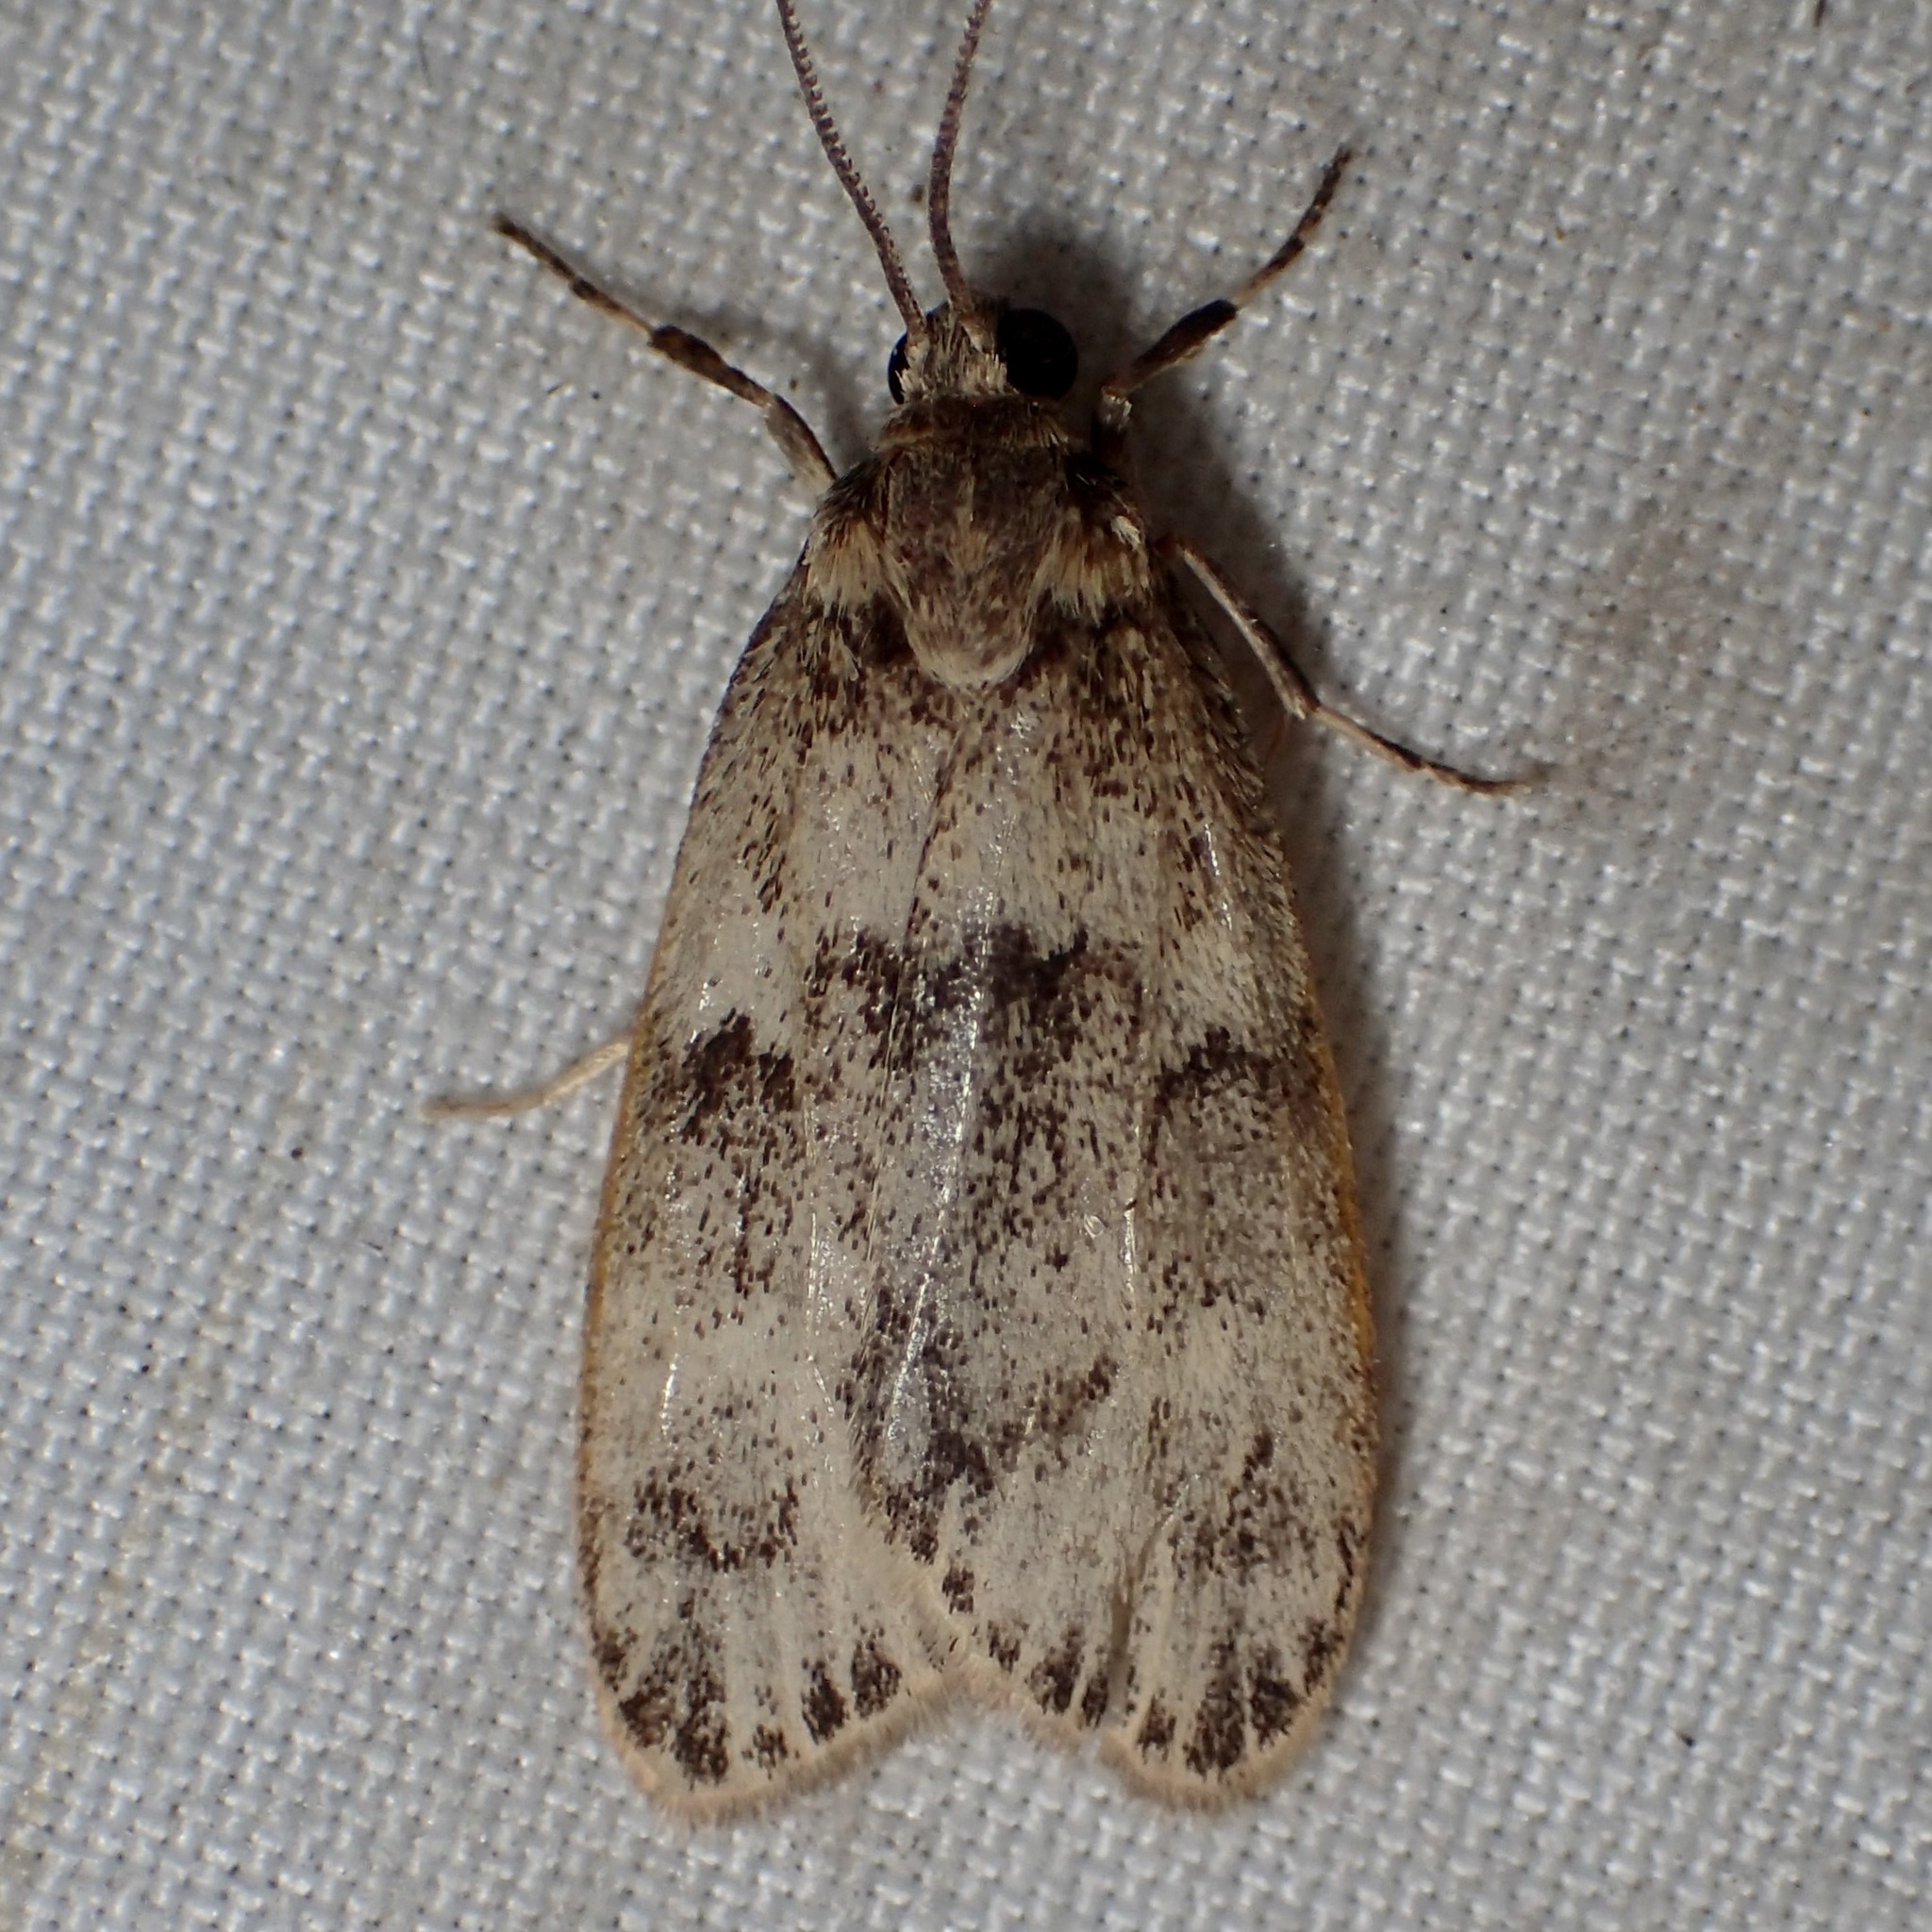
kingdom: Animalia
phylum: Arthropoda
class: Insecta
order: Lepidoptera
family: Erebidae
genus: Bruceia
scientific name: Bruceia hubbardi
